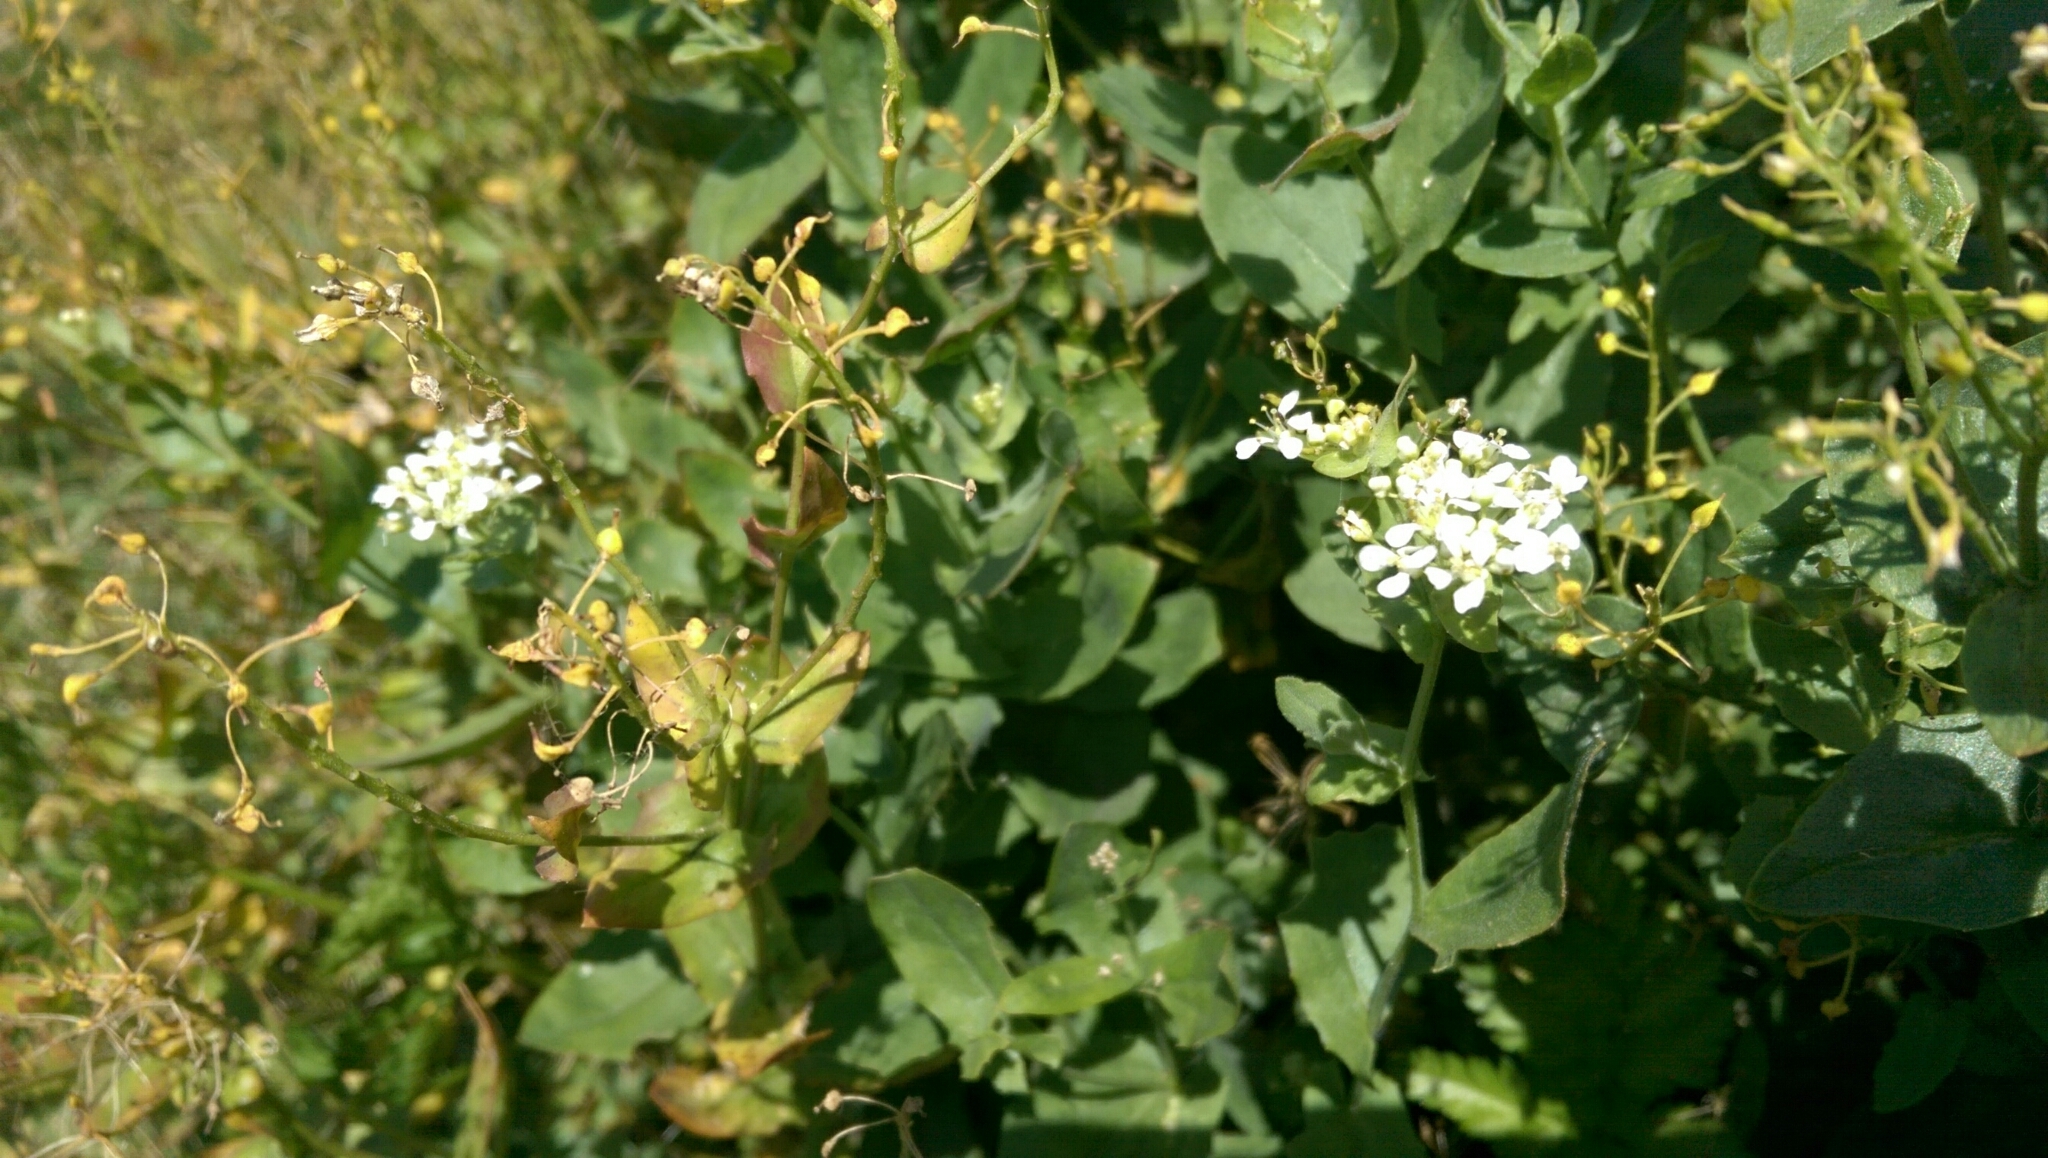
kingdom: Plantae
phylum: Tracheophyta
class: Magnoliopsida
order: Brassicales
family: Brassicaceae
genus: Lepidium
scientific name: Lepidium draba
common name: Hoary cress
